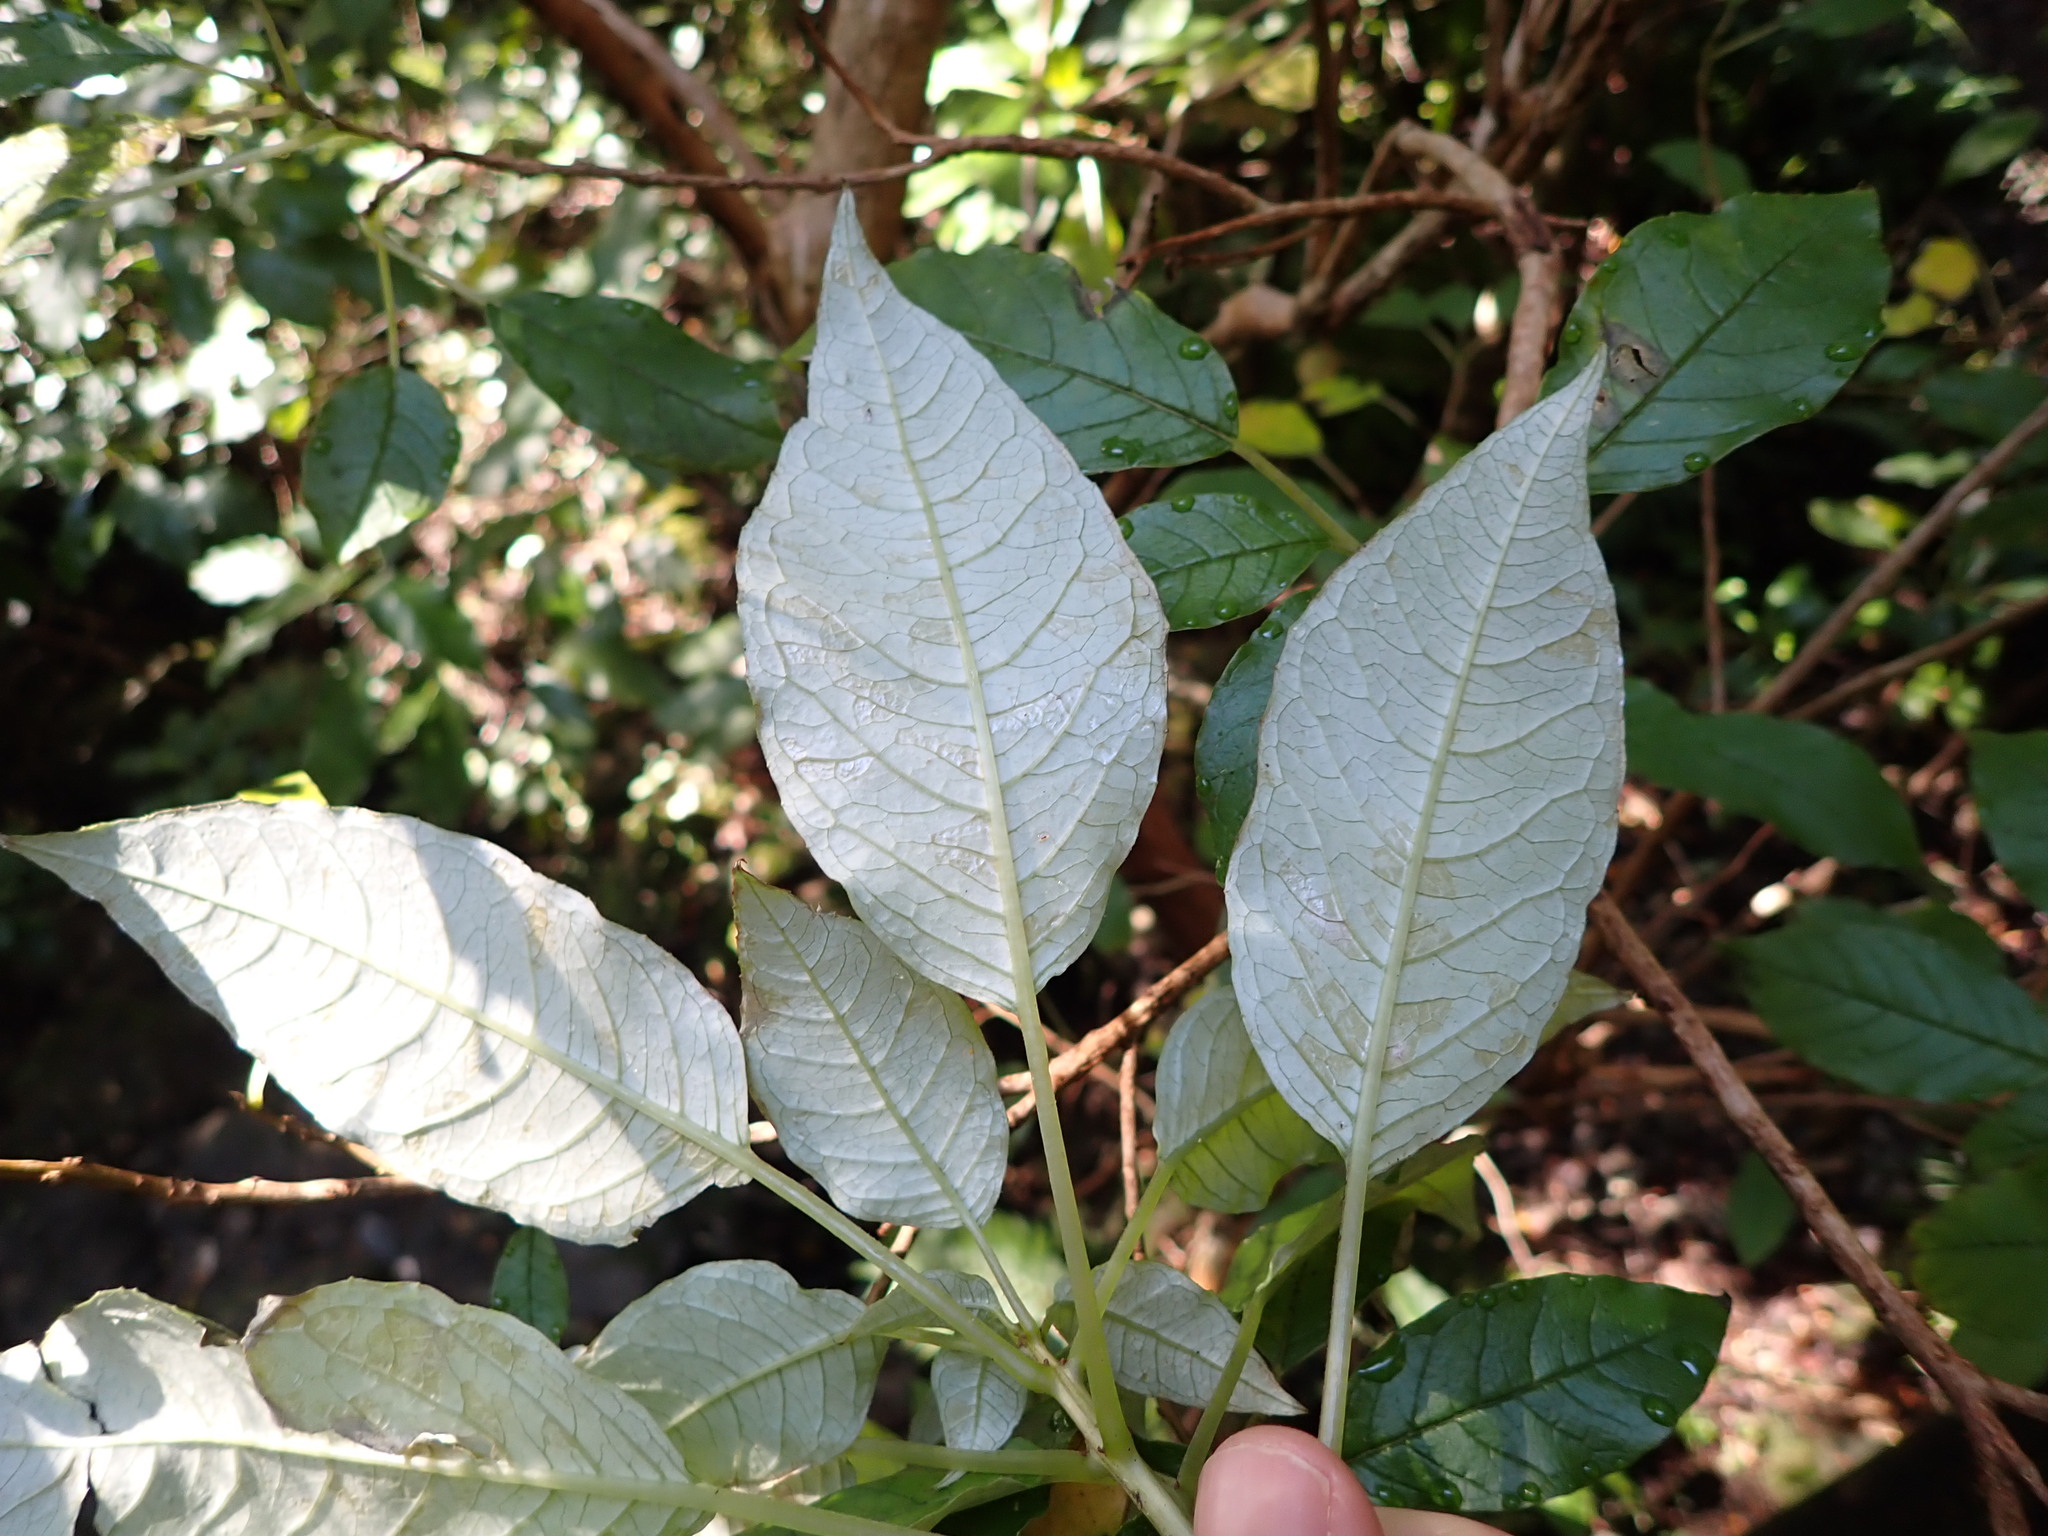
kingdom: Plantae
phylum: Tracheophyta
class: Magnoliopsida
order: Myrtales
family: Onagraceae
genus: Fuchsia
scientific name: Fuchsia excorticata
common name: Tree fuchsia
